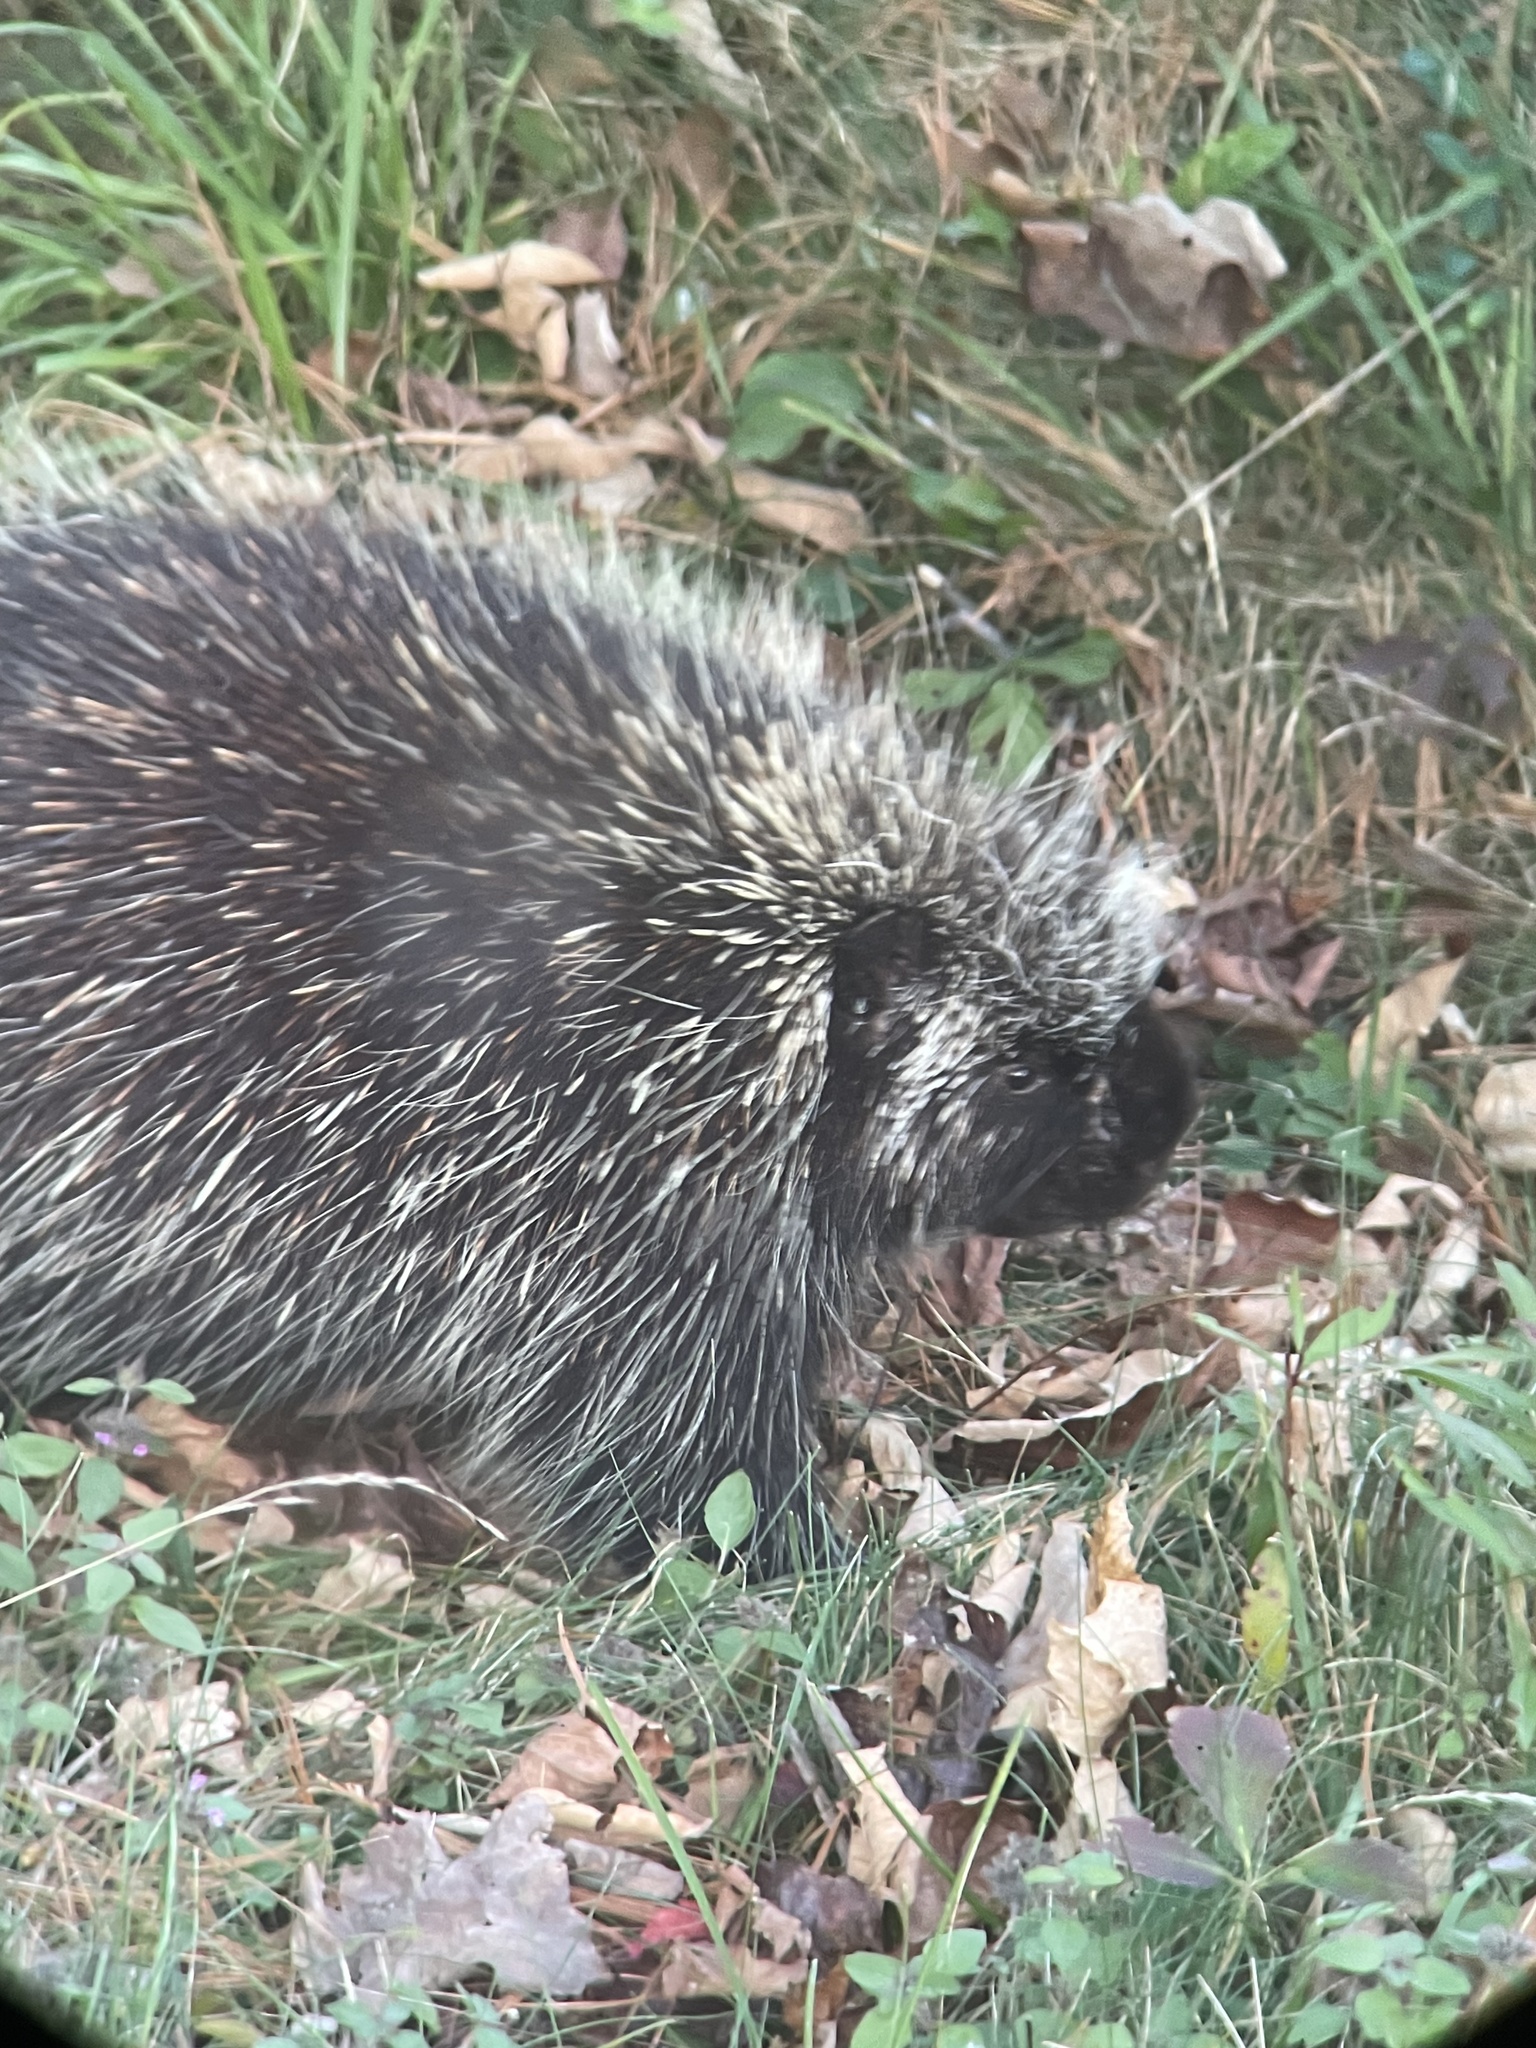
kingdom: Animalia
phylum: Chordata
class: Mammalia
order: Rodentia
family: Erethizontidae
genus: Erethizon
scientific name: Erethizon dorsatus
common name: North american porcupine
